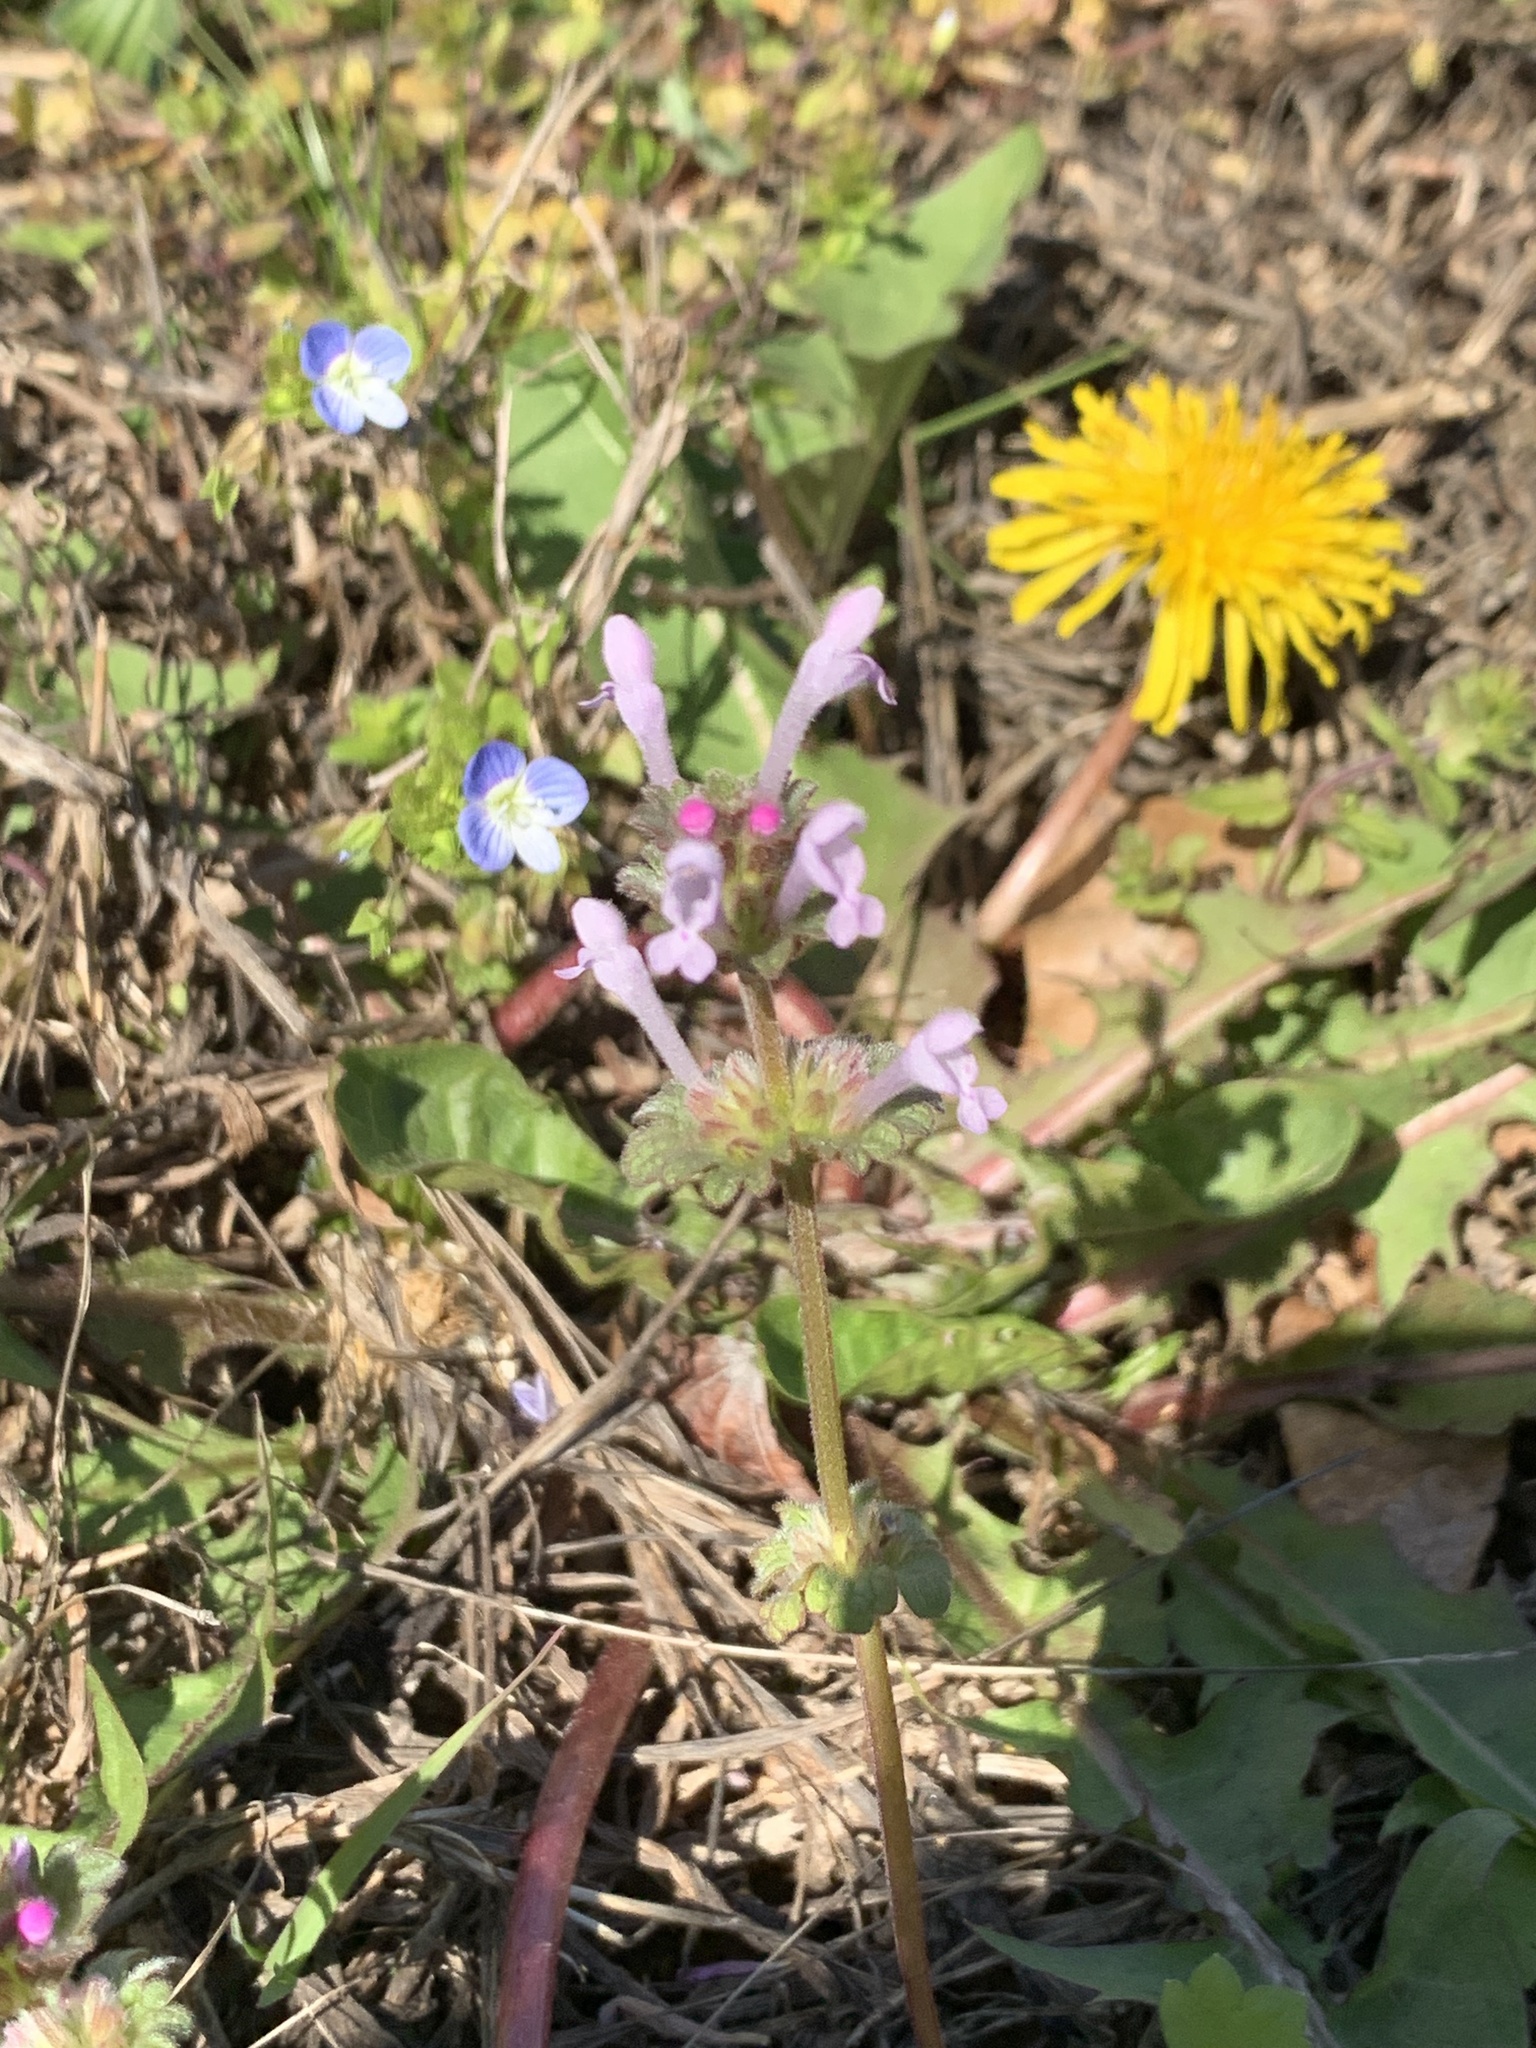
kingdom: Plantae
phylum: Tracheophyta
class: Magnoliopsida
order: Lamiales
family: Lamiaceae
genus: Lamium
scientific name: Lamium amplexicaule
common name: Henbit dead-nettle
